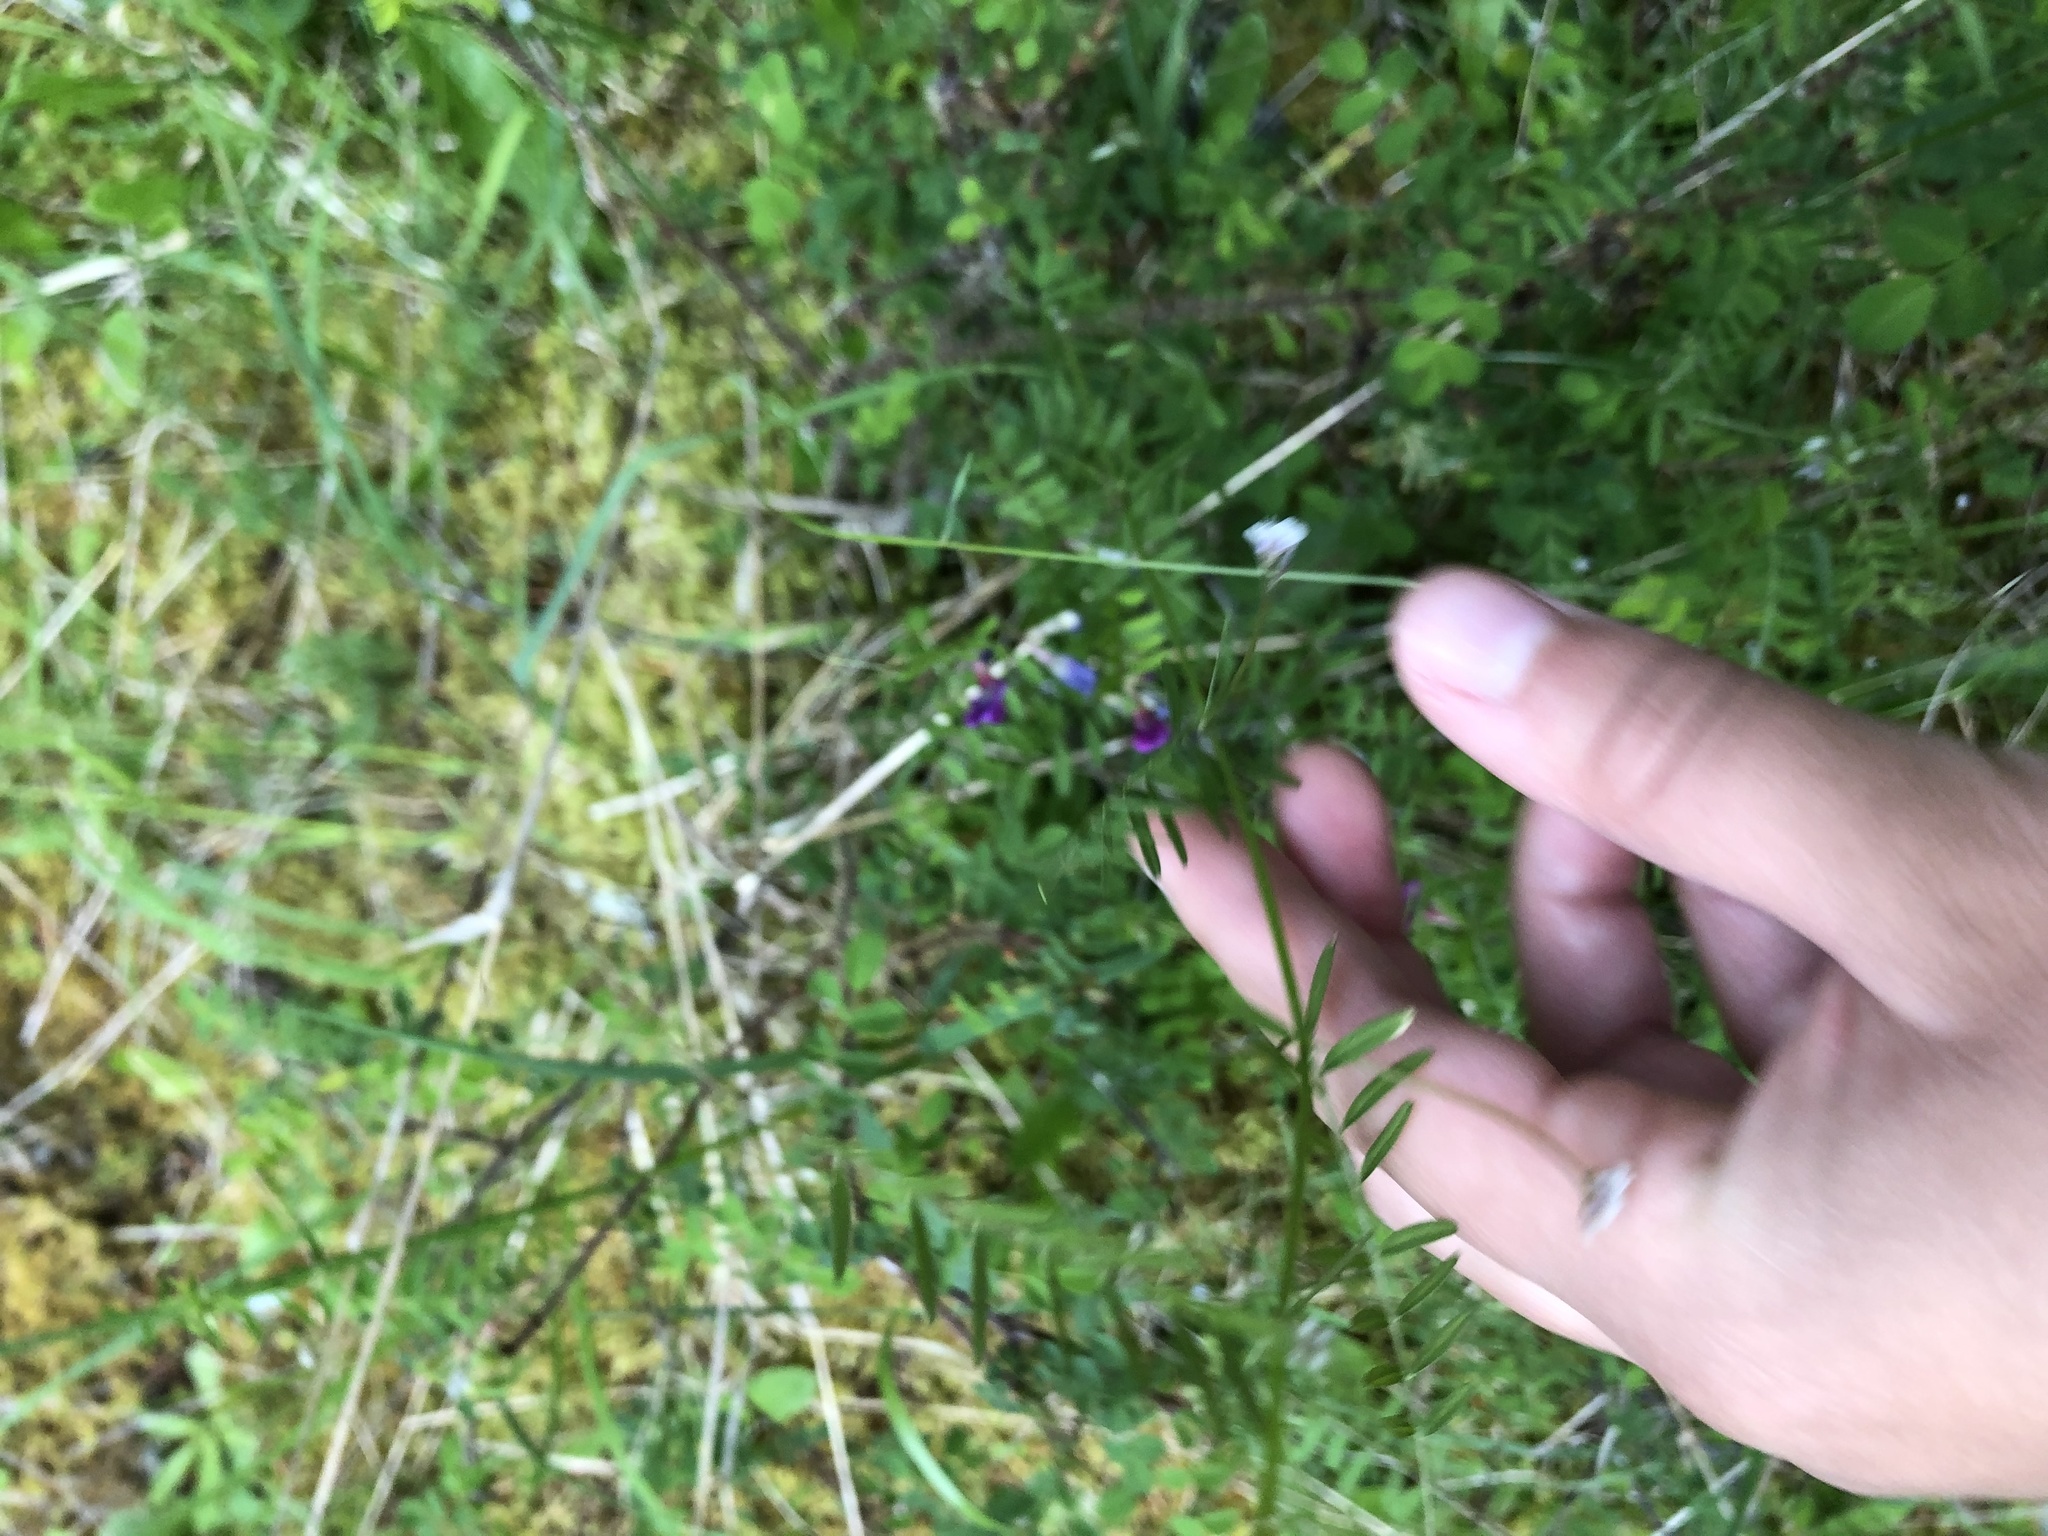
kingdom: Plantae
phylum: Tracheophyta
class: Magnoliopsida
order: Fabales
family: Fabaceae
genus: Vicia
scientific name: Vicia hirsuta
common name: Tiny vetch
